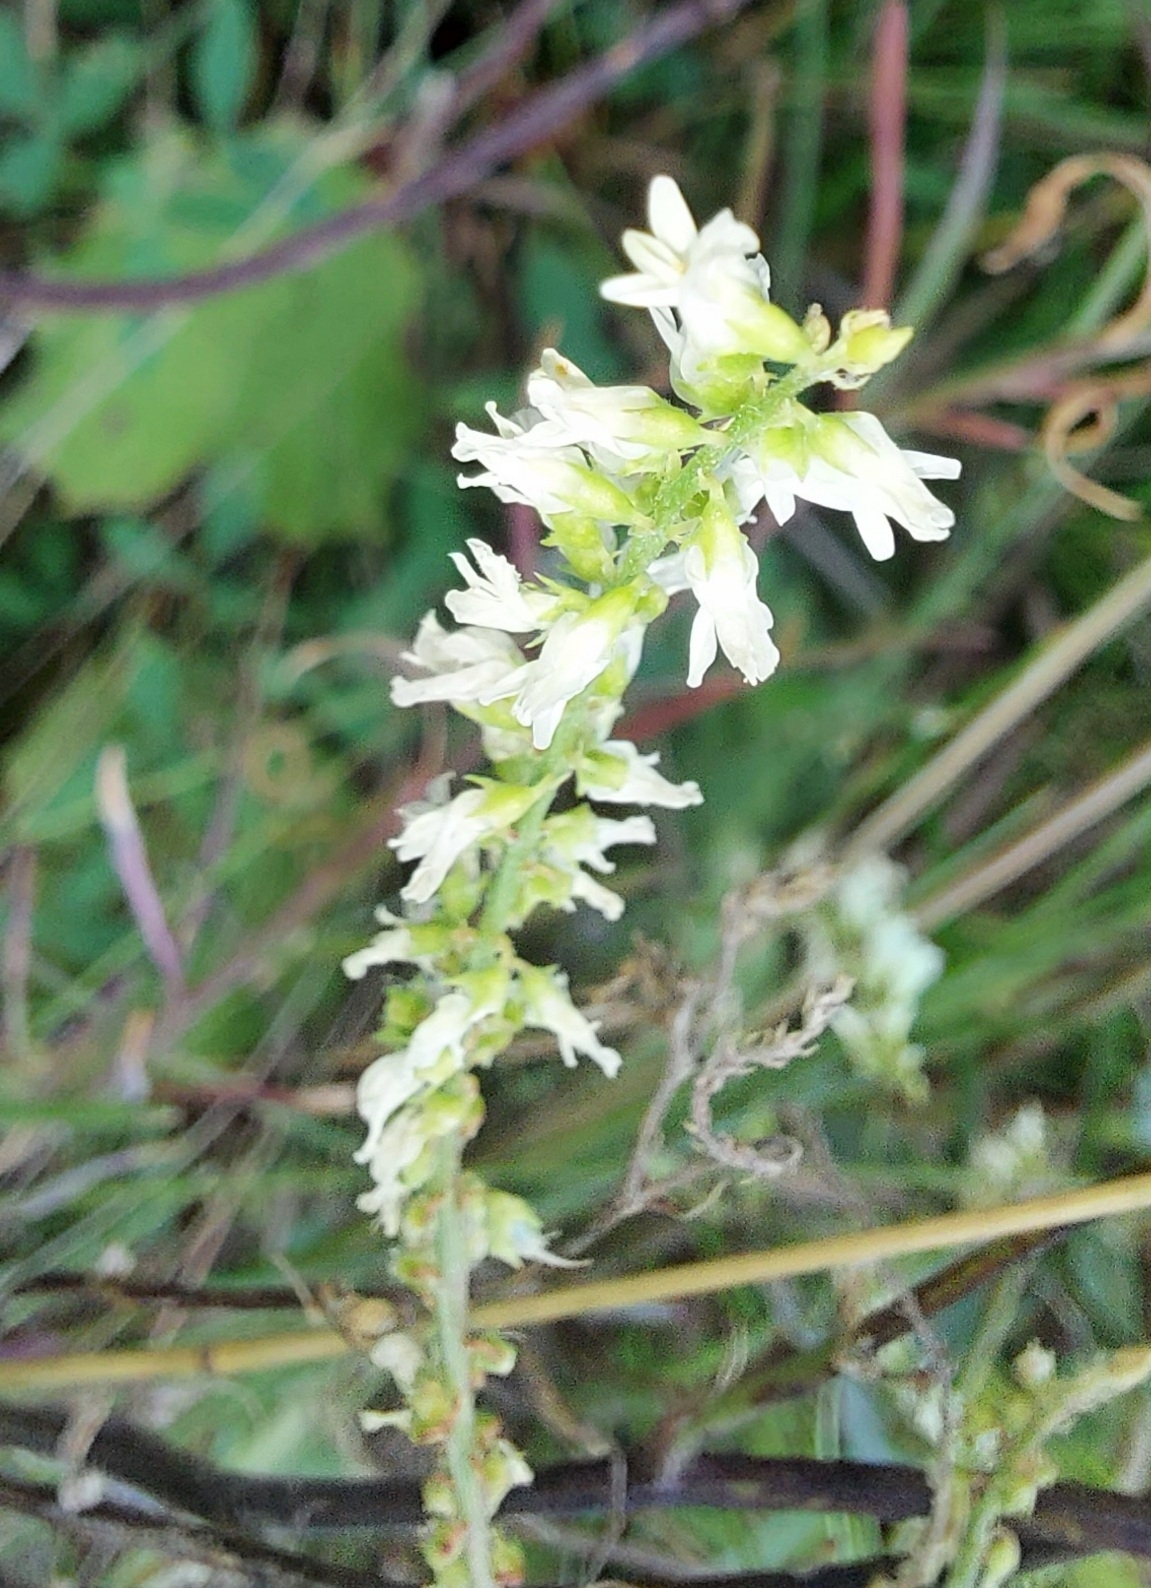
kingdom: Plantae
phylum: Tracheophyta
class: Magnoliopsida
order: Fabales
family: Fabaceae
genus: Melilotus
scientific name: Melilotus albus
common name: White melilot
